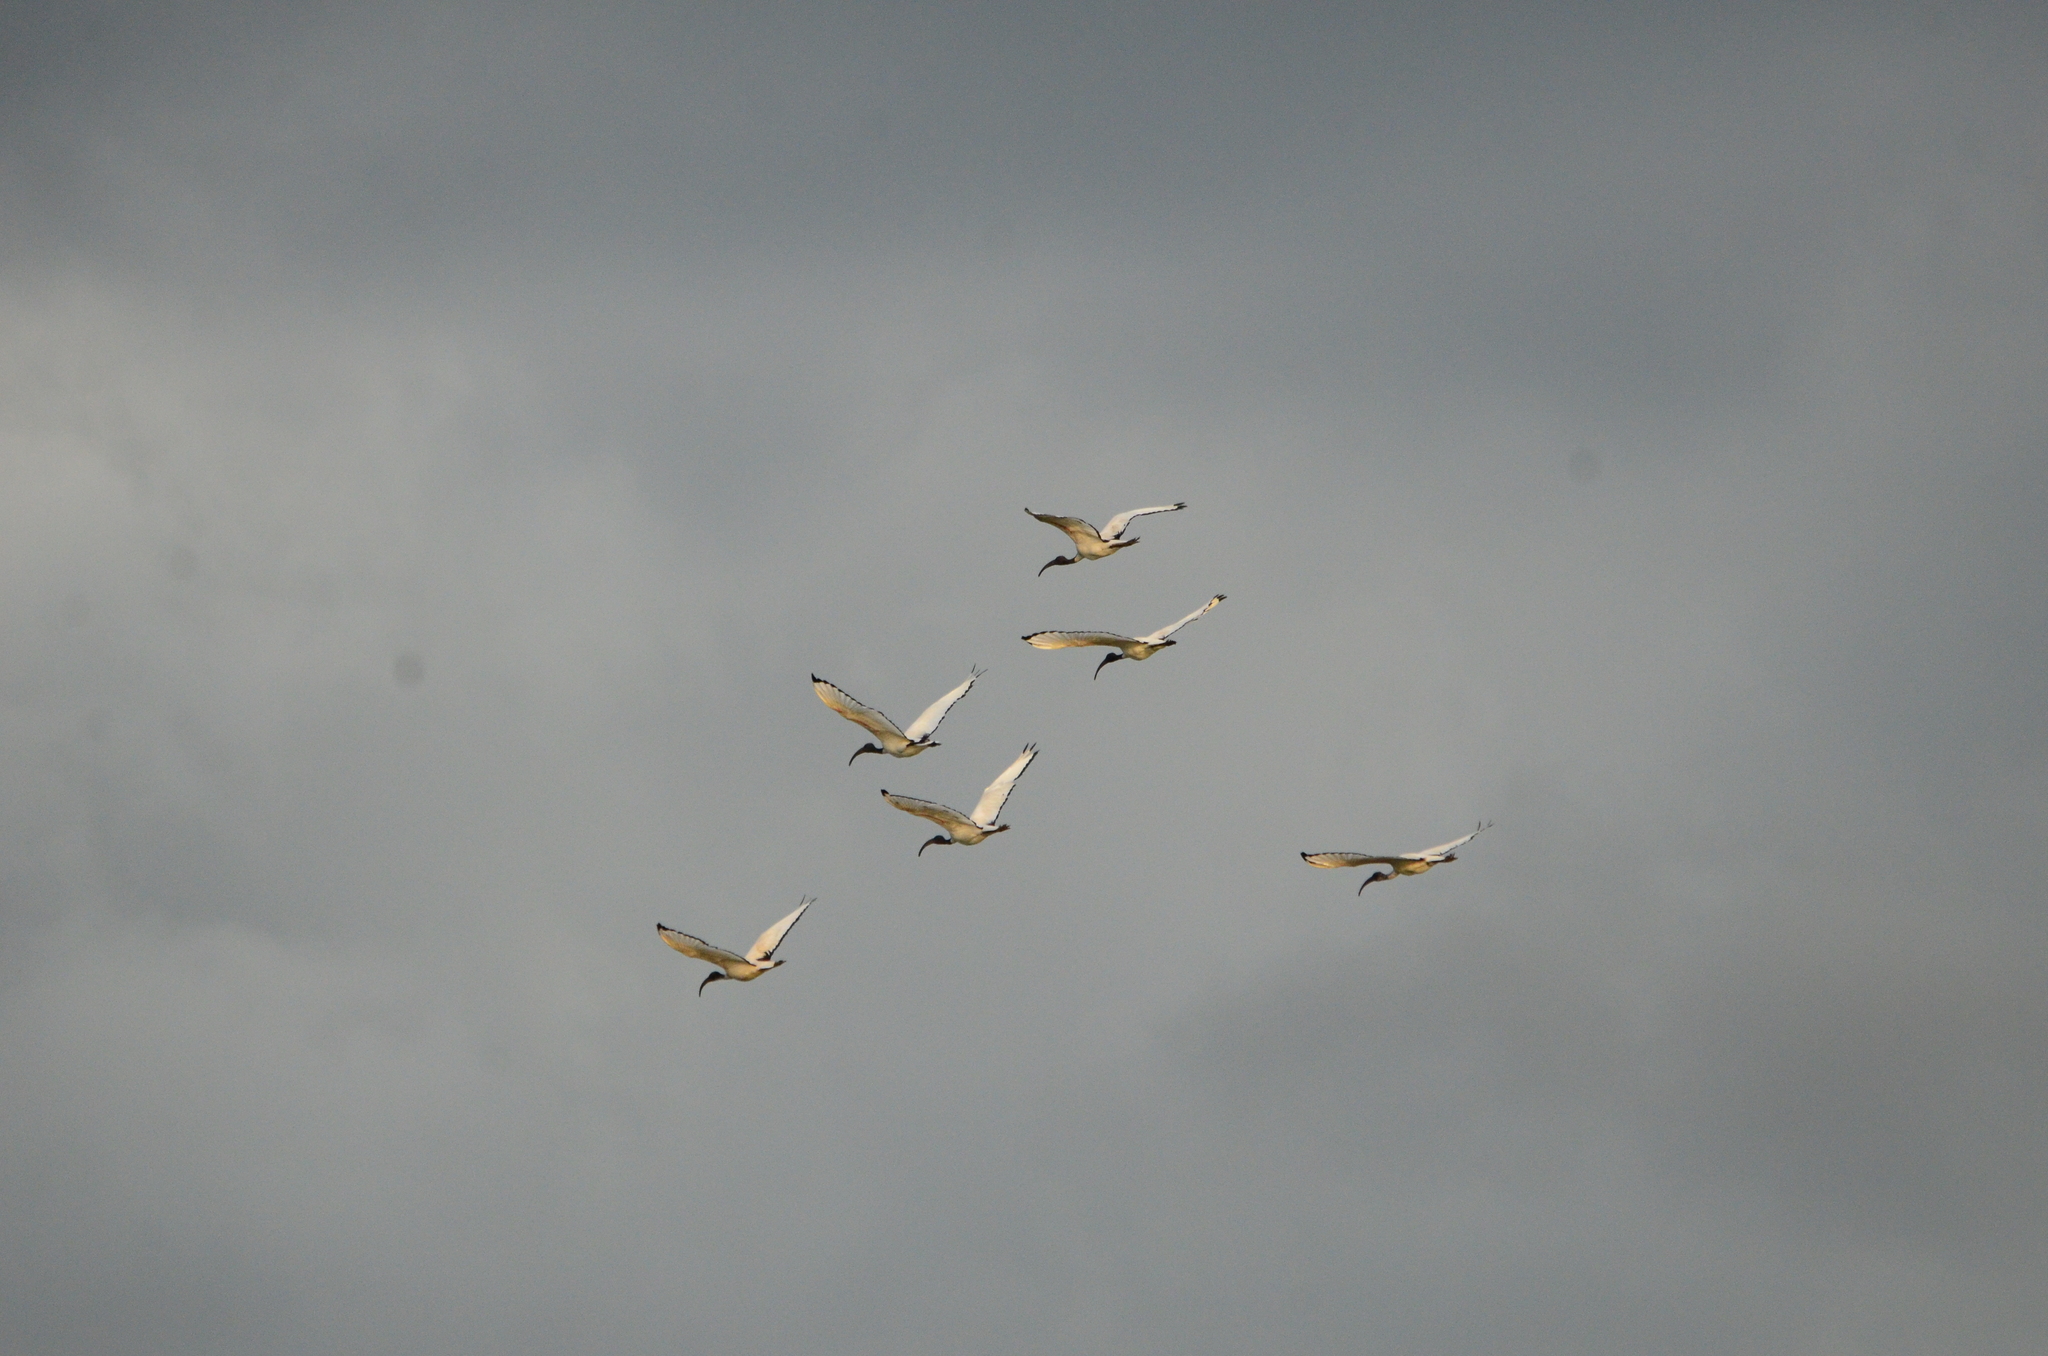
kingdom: Animalia
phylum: Chordata
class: Aves
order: Pelecaniformes
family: Threskiornithidae
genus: Threskiornis
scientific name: Threskiornis aethiopicus
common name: Sacred ibis
